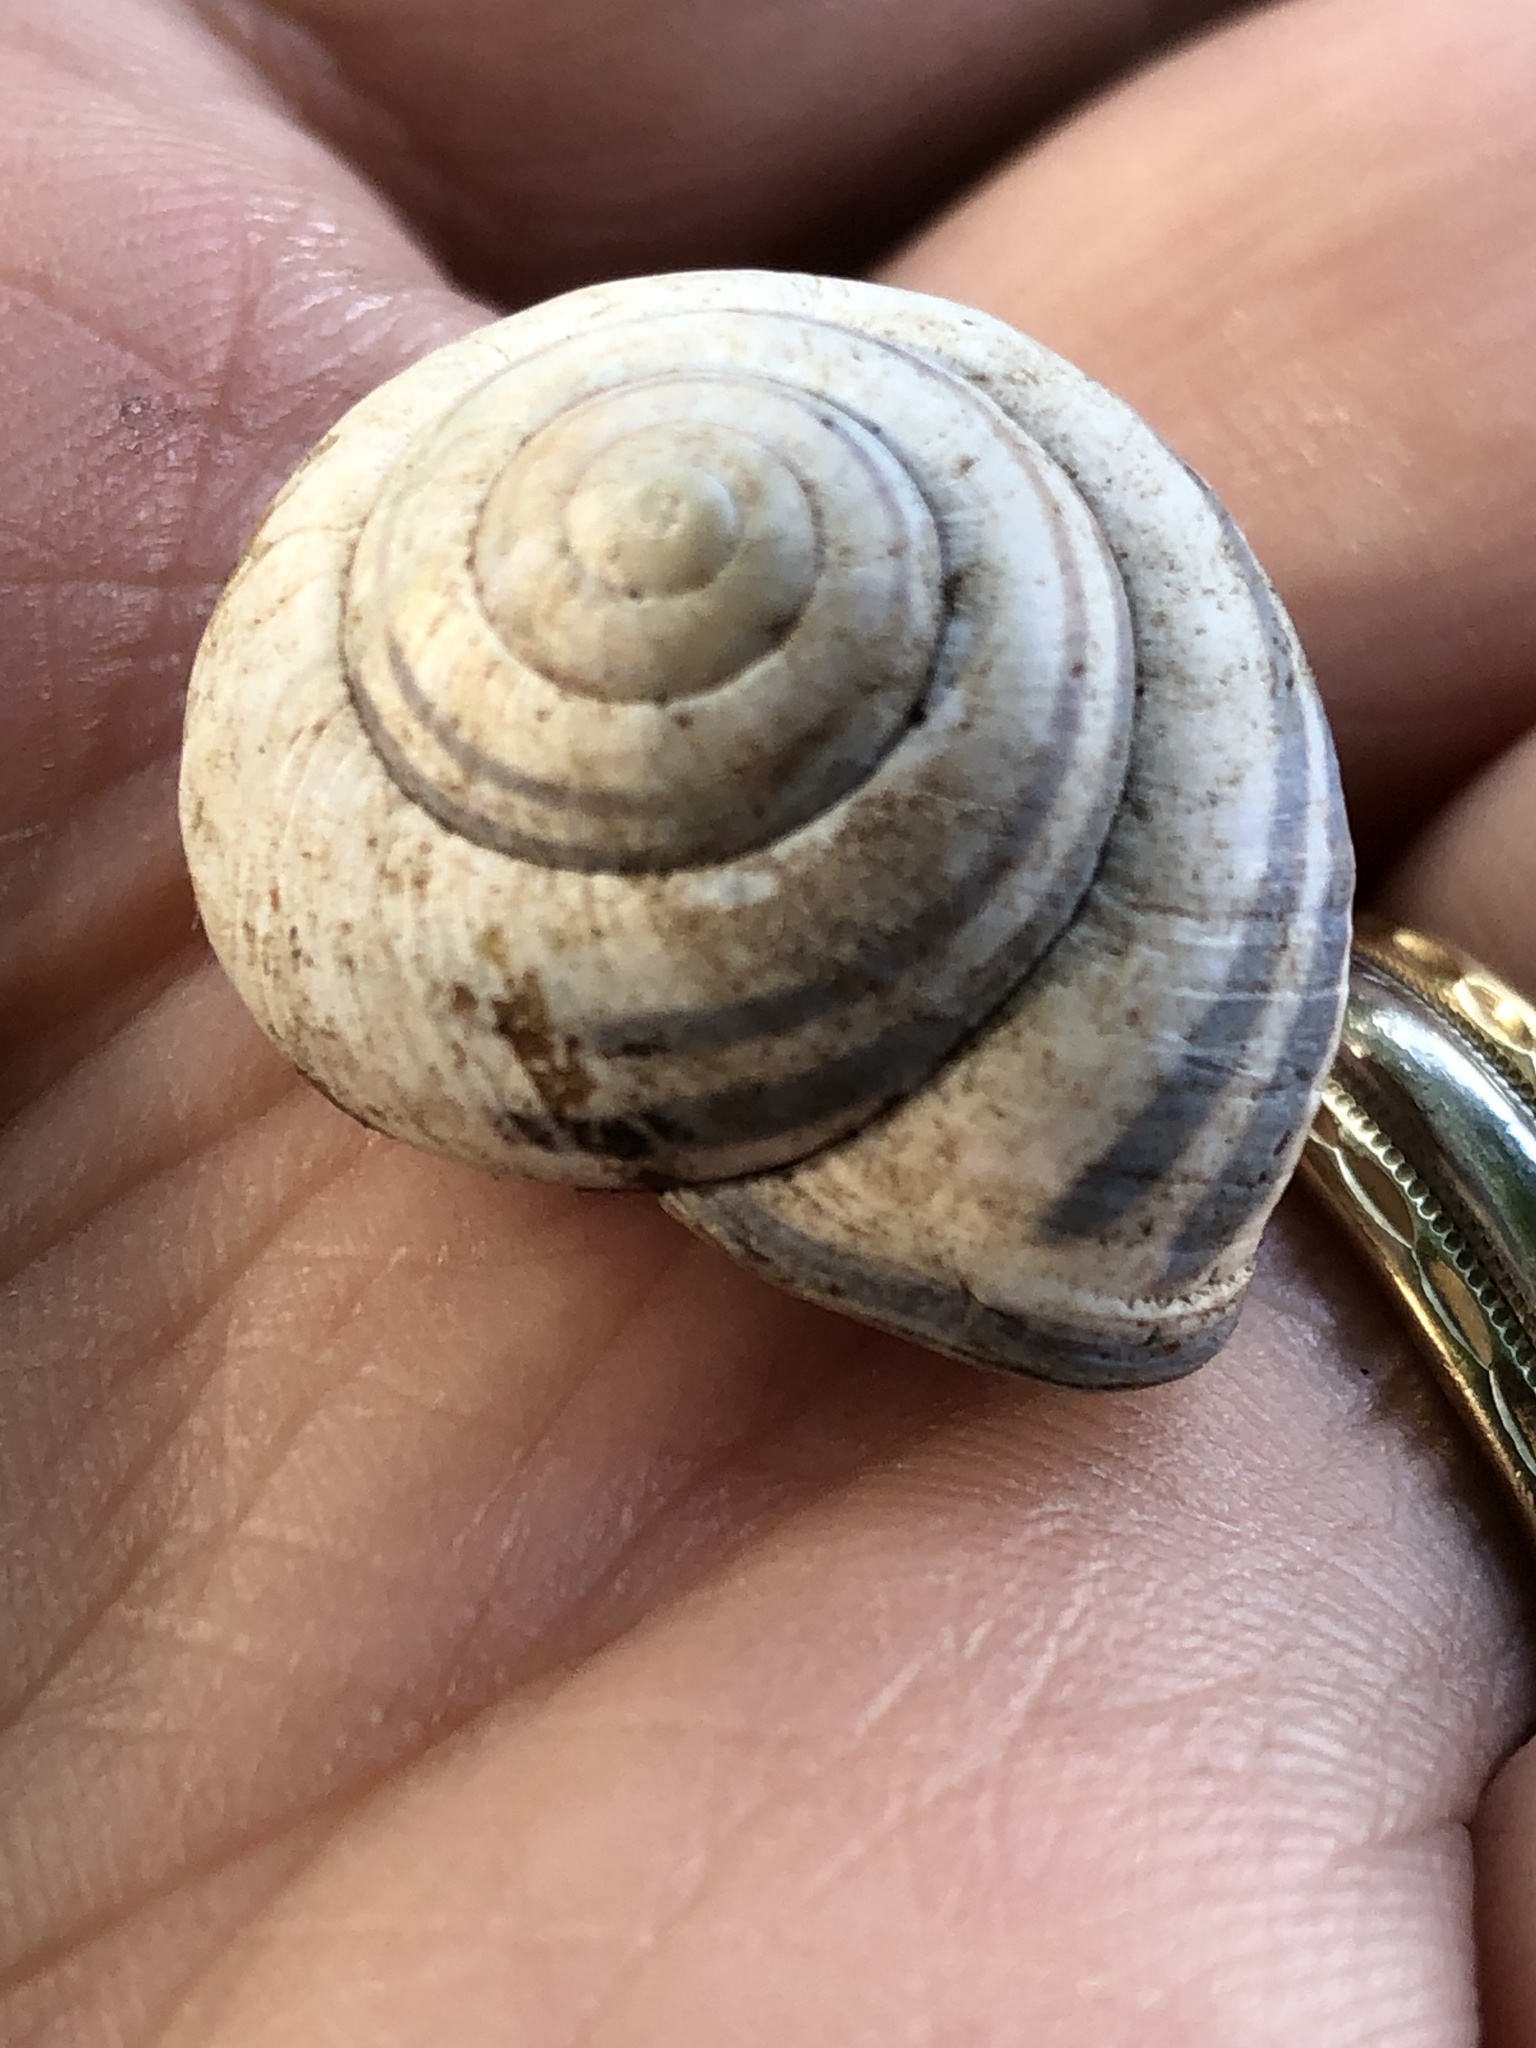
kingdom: Animalia
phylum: Mollusca
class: Gastropoda
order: Stylommatophora
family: Helicidae
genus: Cepaea
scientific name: Cepaea nemoralis
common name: Grovesnail
